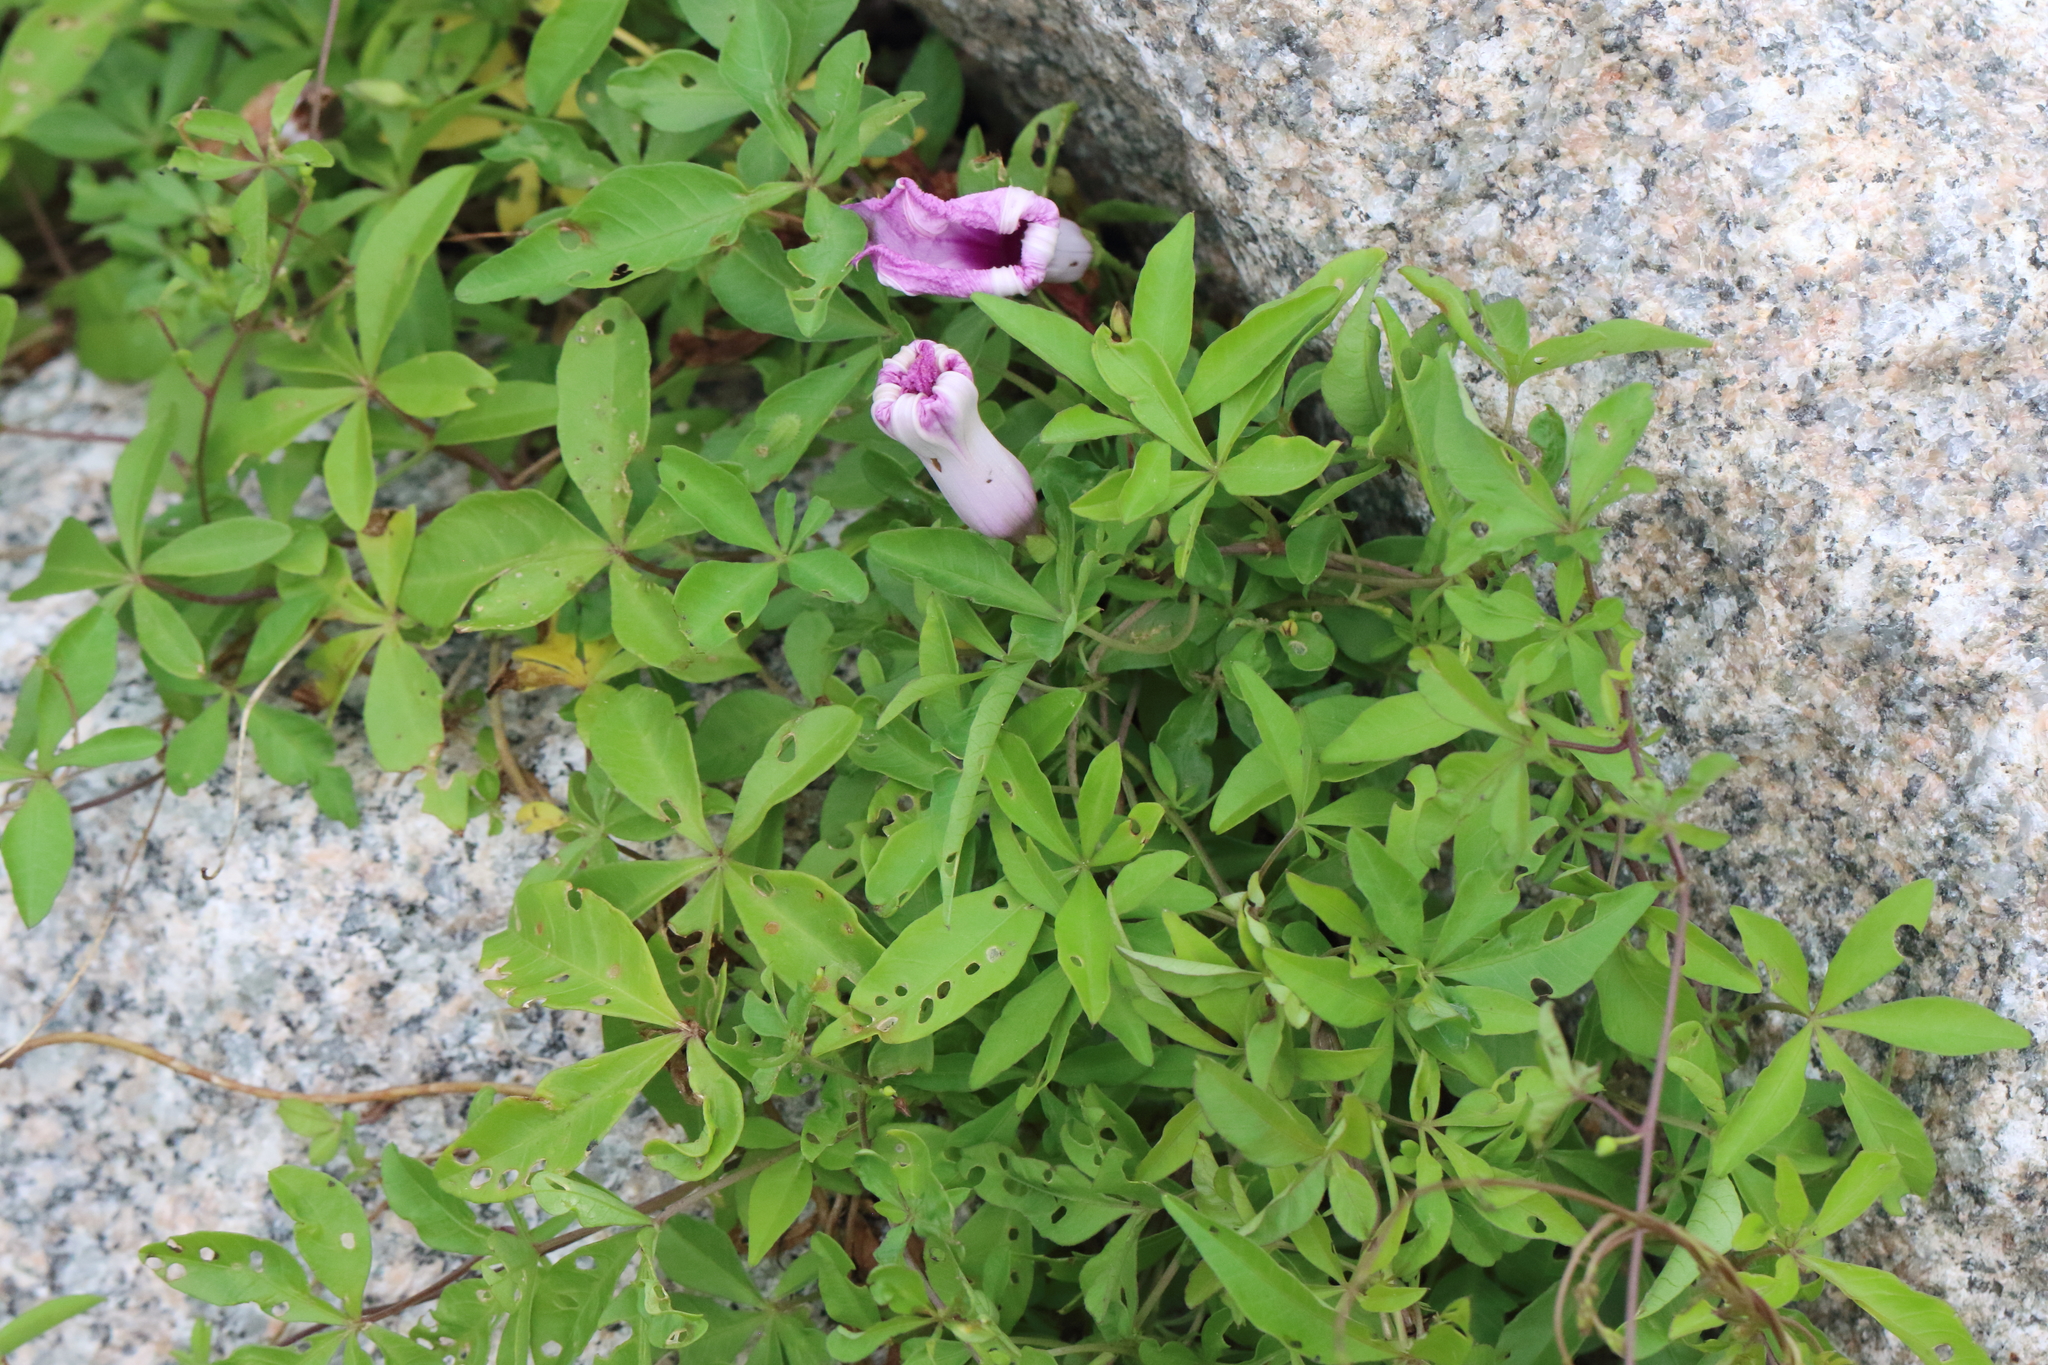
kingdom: Plantae
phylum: Tracheophyta
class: Magnoliopsida
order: Solanales
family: Convolvulaceae
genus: Ipomoea
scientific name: Ipomoea cairica
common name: Mile a minute vine
